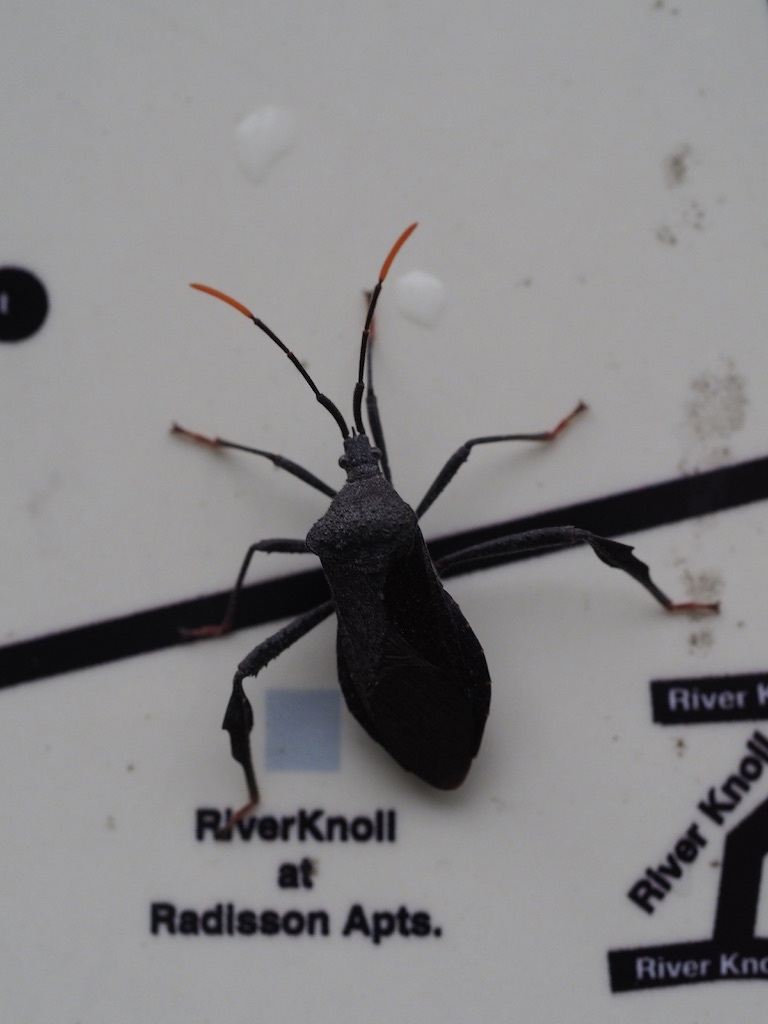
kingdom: Animalia
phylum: Arthropoda
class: Insecta
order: Hemiptera
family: Coreidae
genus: Acanthocephala
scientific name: Acanthocephala terminalis
